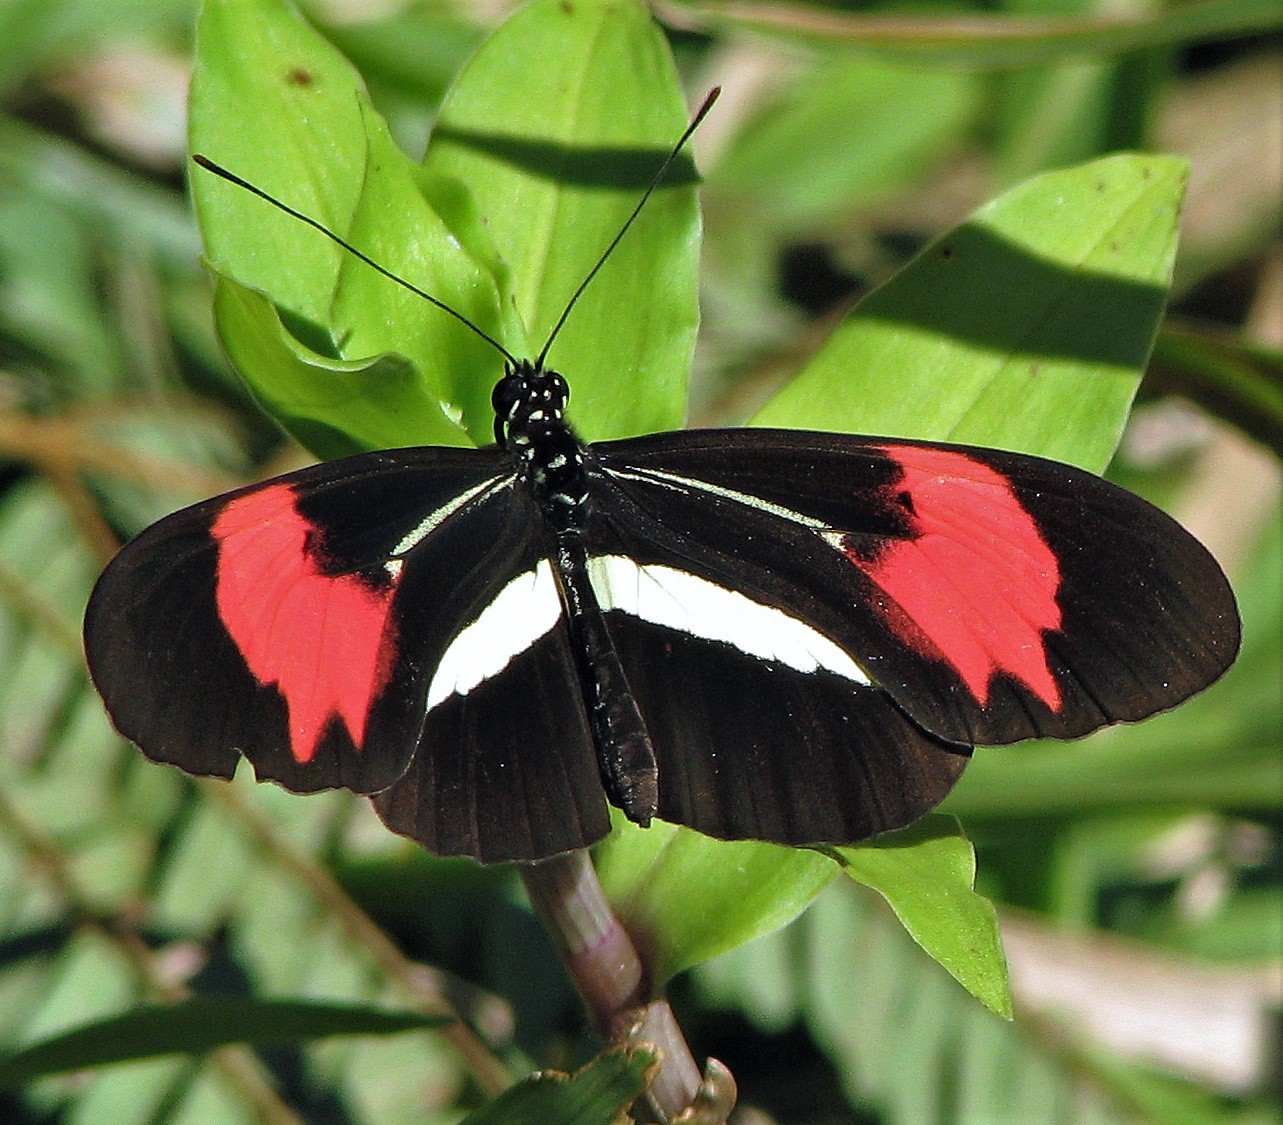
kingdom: Animalia
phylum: Arthropoda
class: Insecta
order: Lepidoptera
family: Nymphalidae
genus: Heliconius
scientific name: Heliconius erato
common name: Common patch longwing
